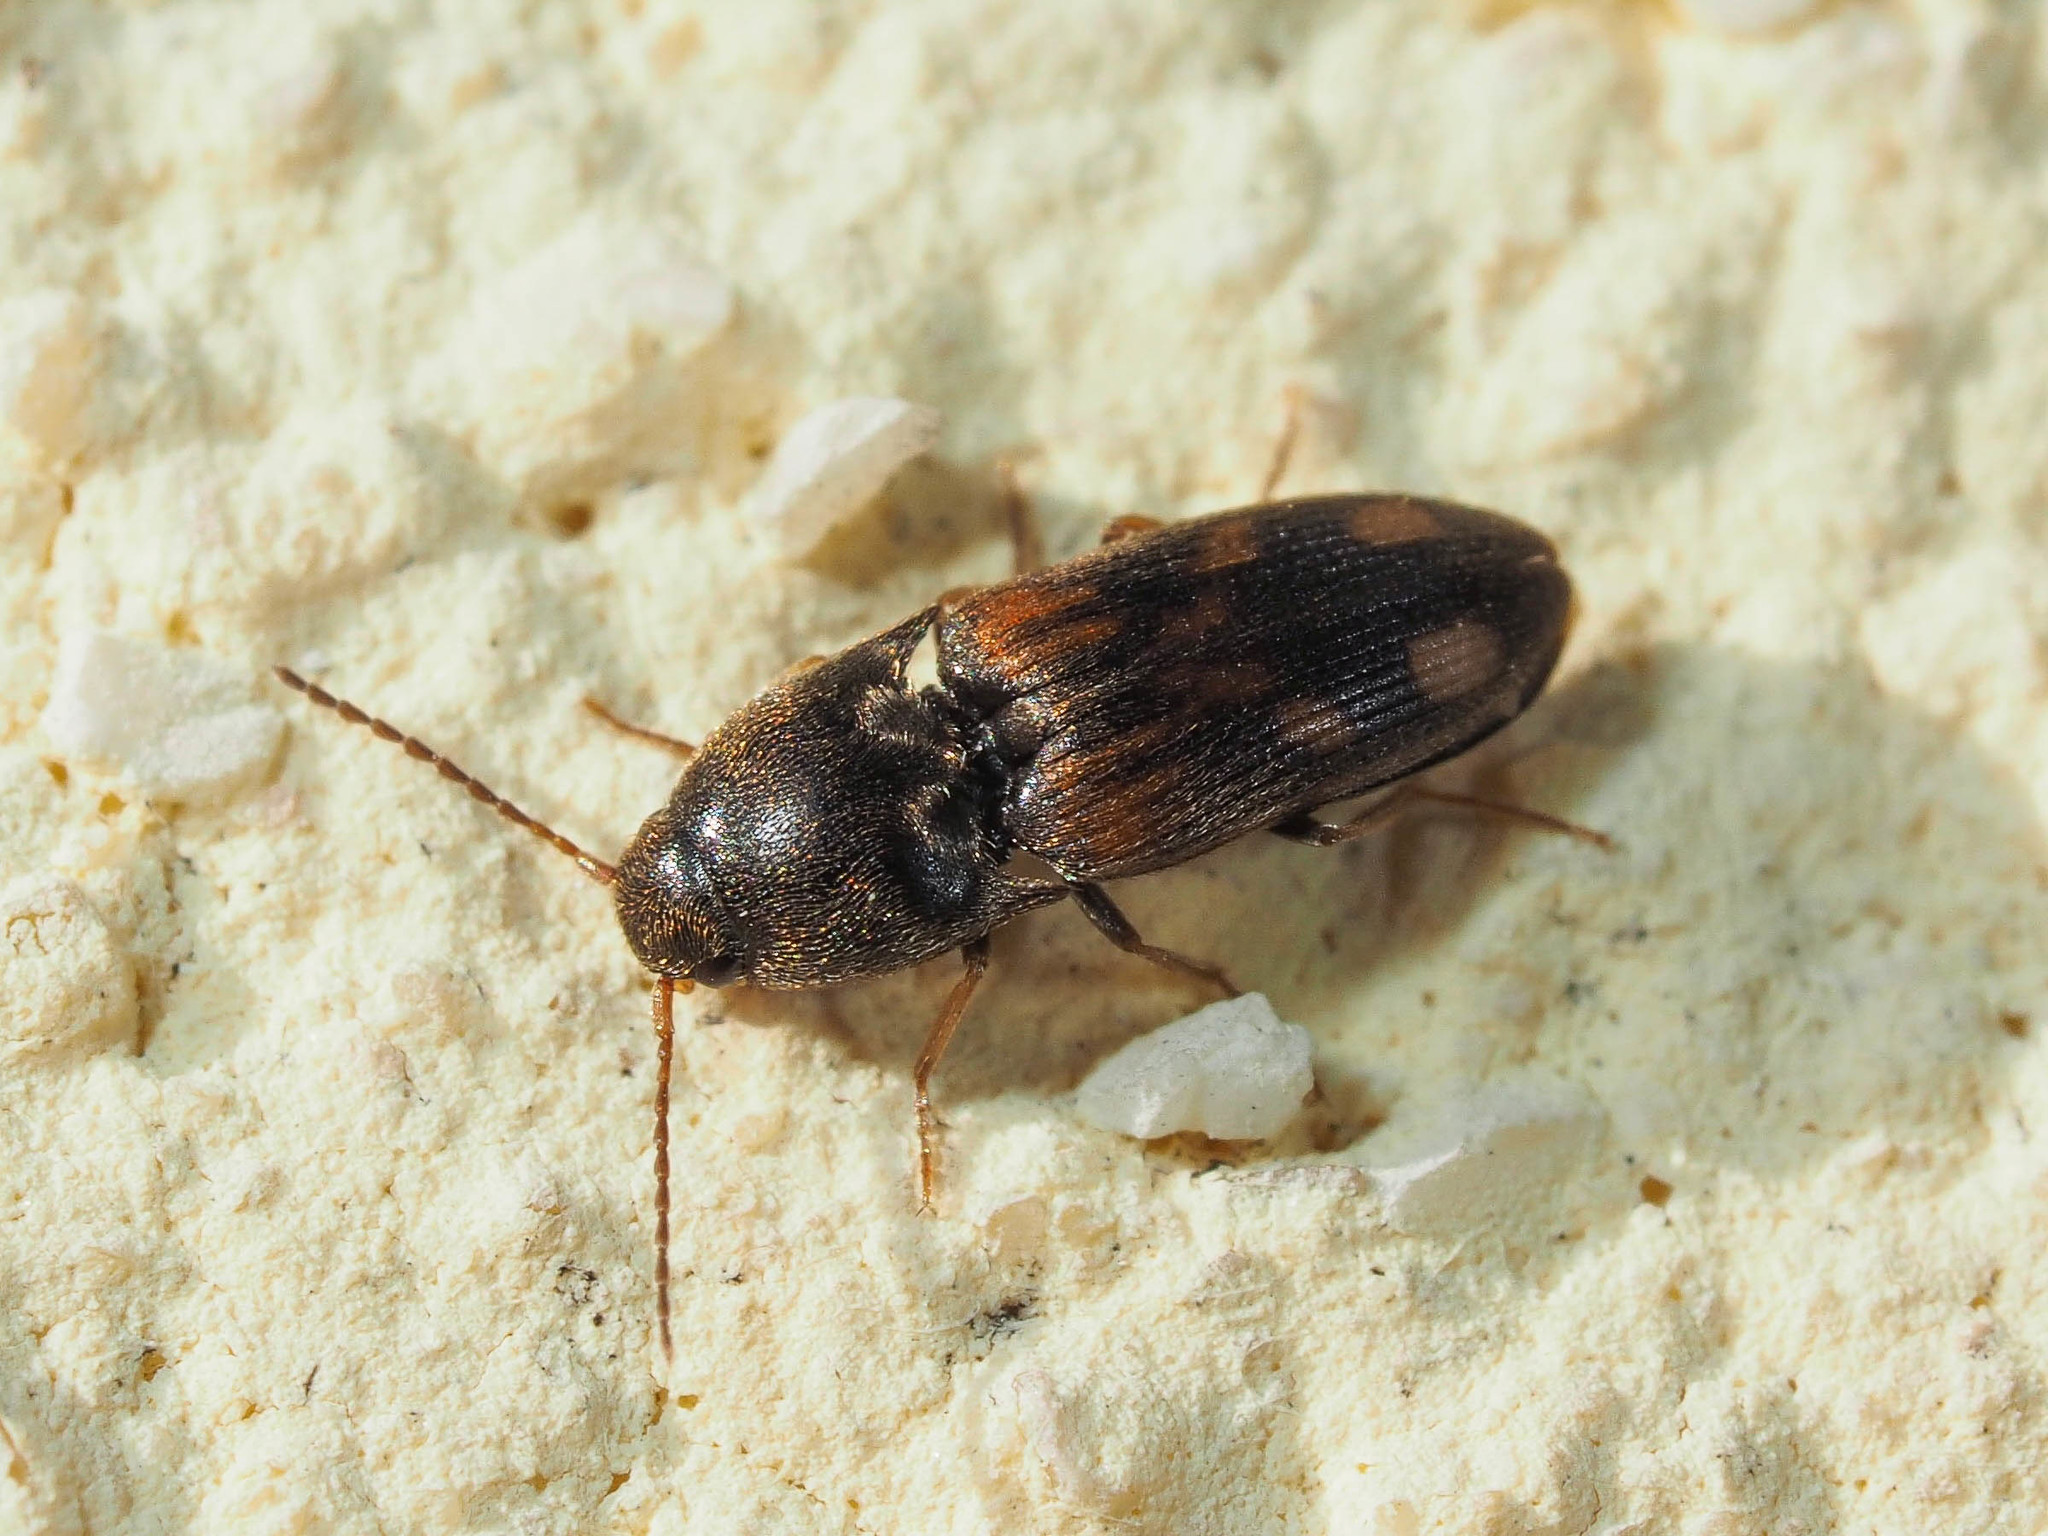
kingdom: Animalia
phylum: Arthropoda
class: Insecta
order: Coleoptera
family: Elateridae
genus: Drasterius
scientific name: Drasterius bimaculatus
